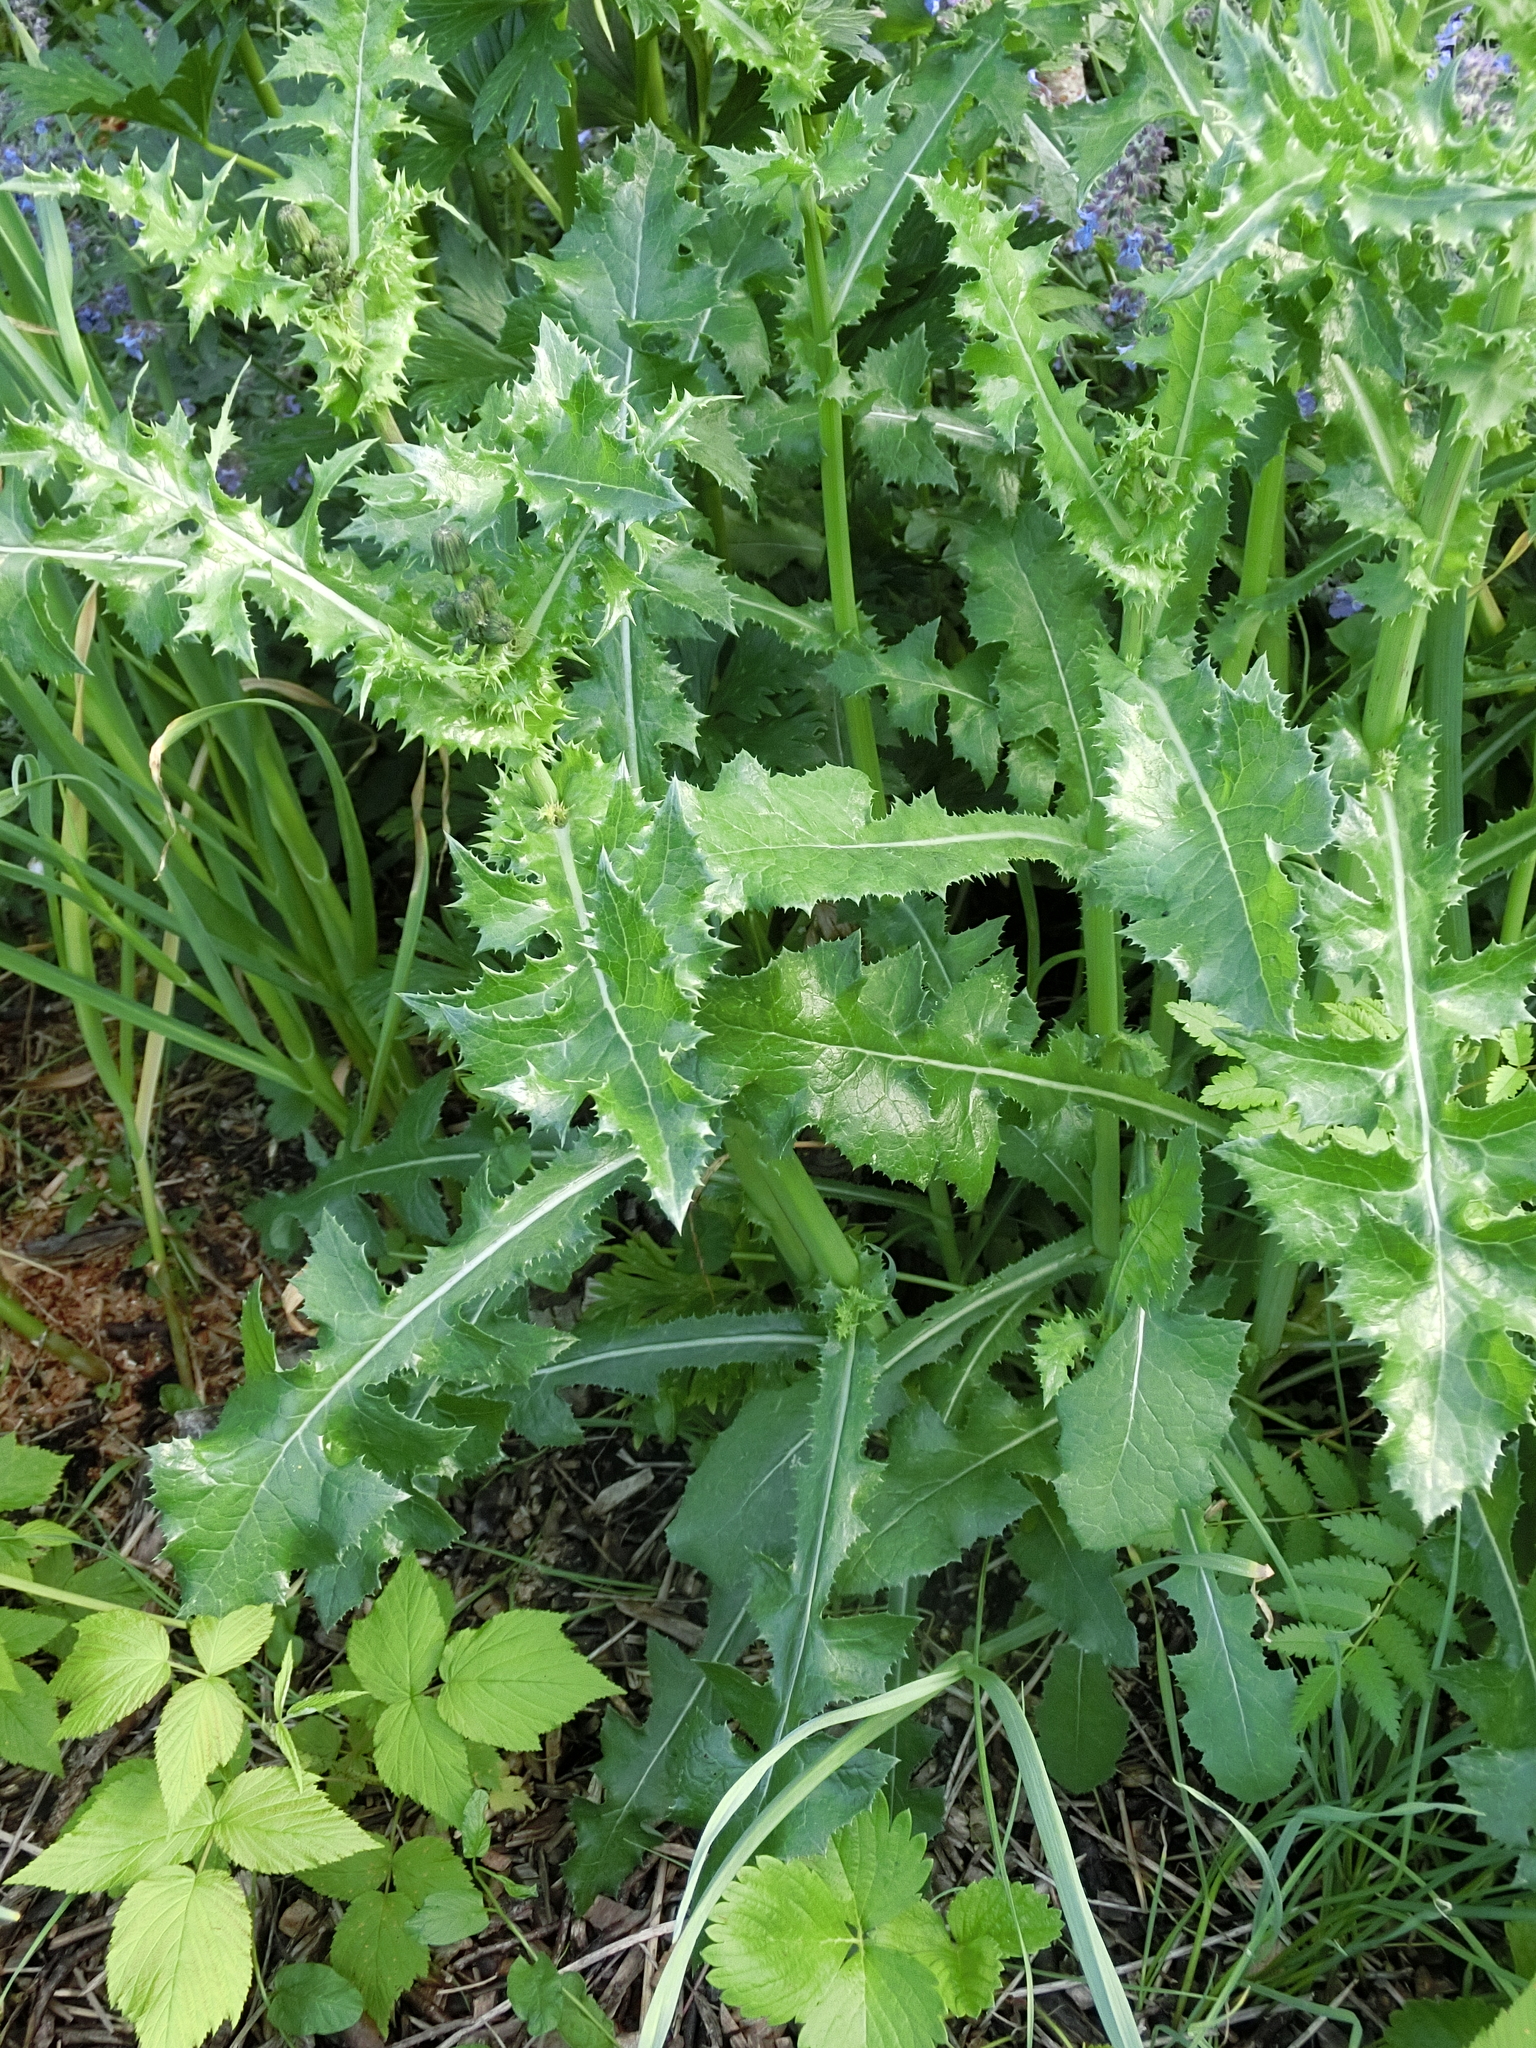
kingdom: Plantae
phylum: Tracheophyta
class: Magnoliopsida
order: Asterales
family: Asteraceae
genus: Sonchus
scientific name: Sonchus asper
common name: Prickly sow-thistle
